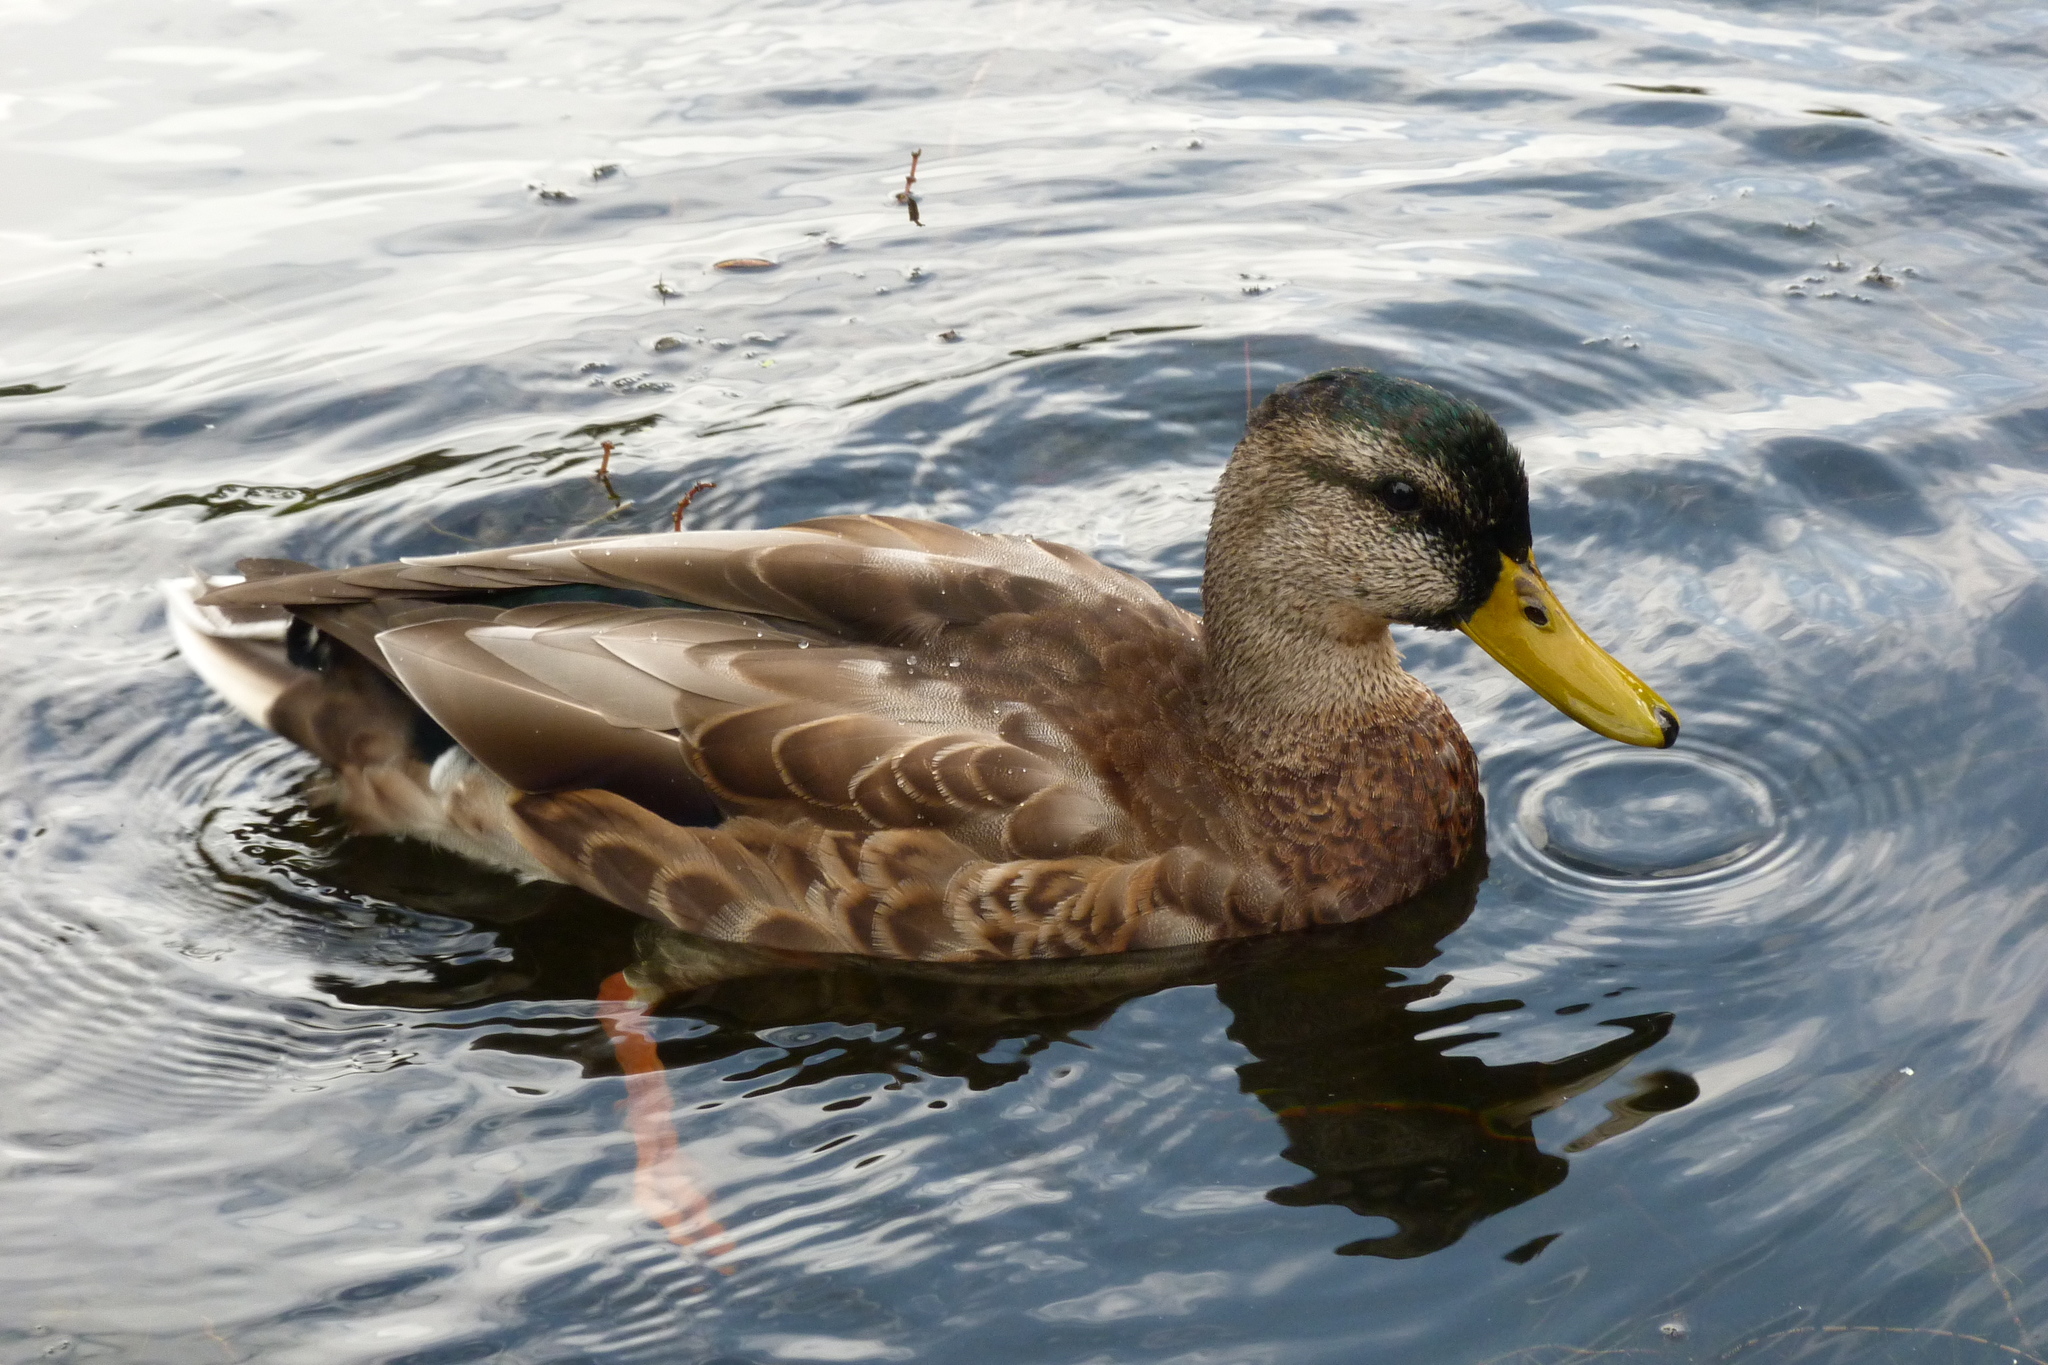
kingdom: Animalia
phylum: Chordata
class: Aves
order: Anseriformes
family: Anatidae
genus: Anas
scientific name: Anas platyrhynchos
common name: Mallard
